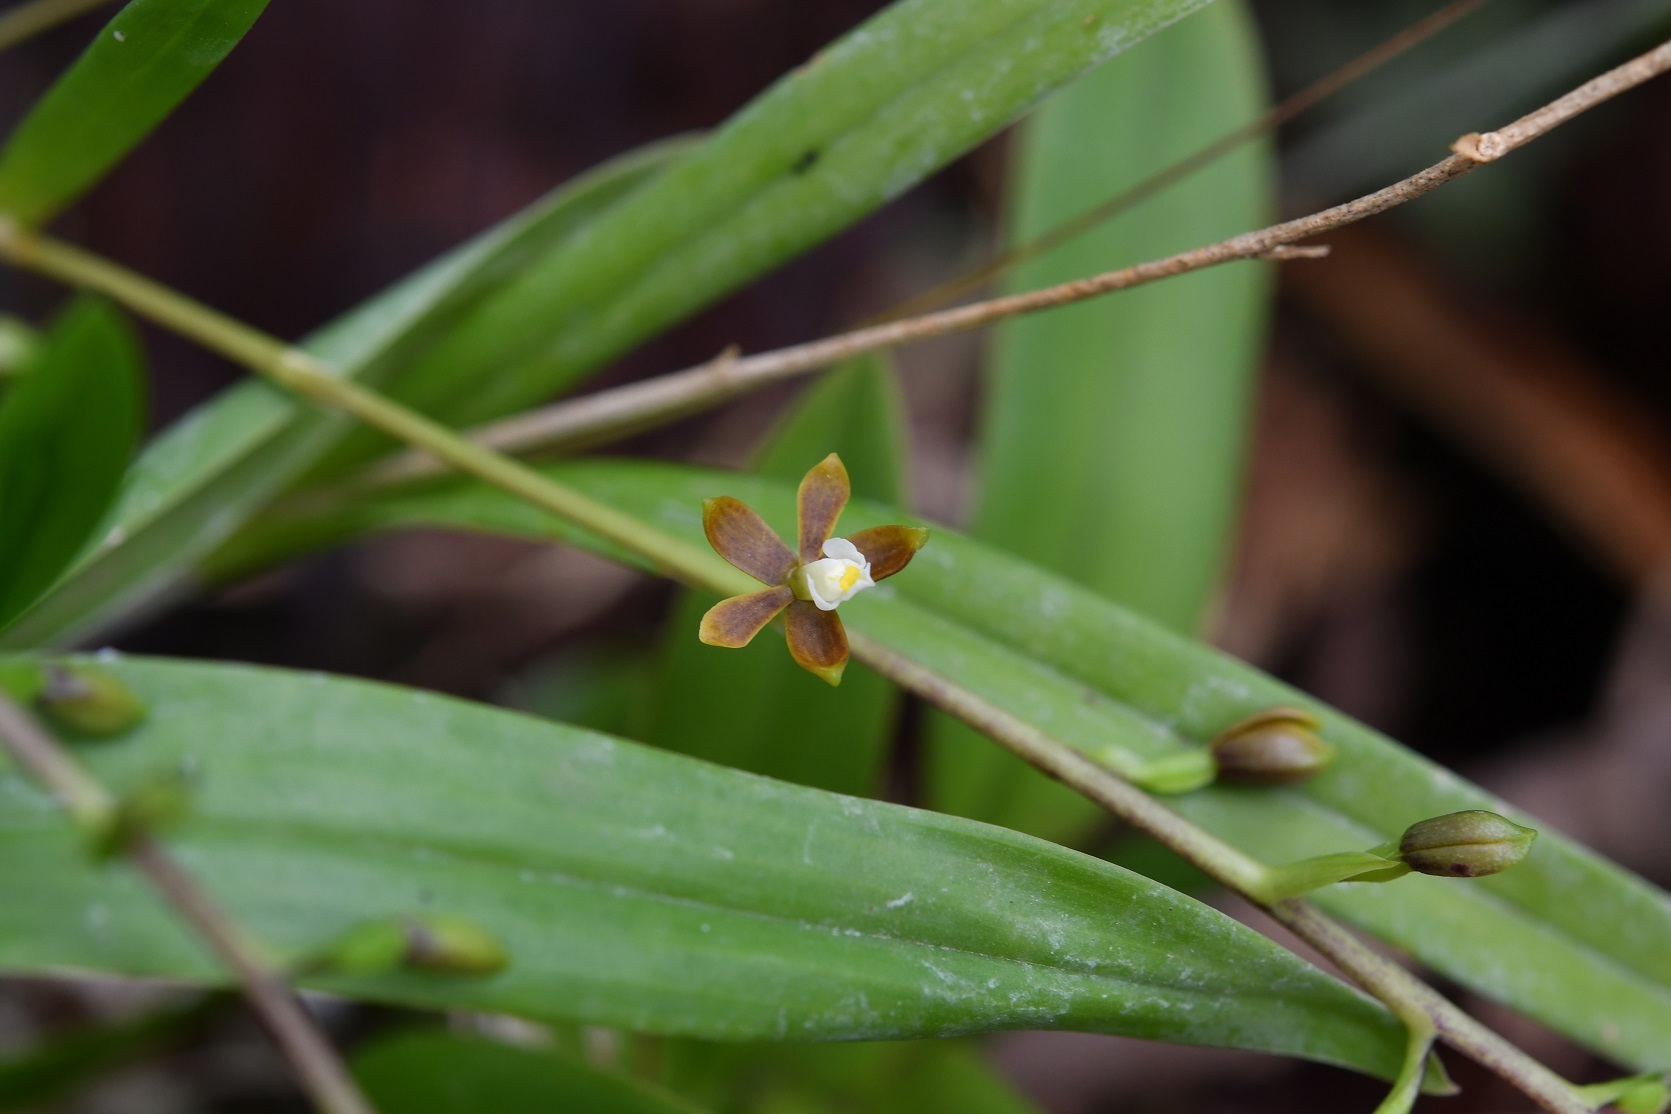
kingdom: Plantae
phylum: Tracheophyta
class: Liliopsida
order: Asparagales
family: Orchidaceae
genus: Prosthechea
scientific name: Prosthechea ochracea
